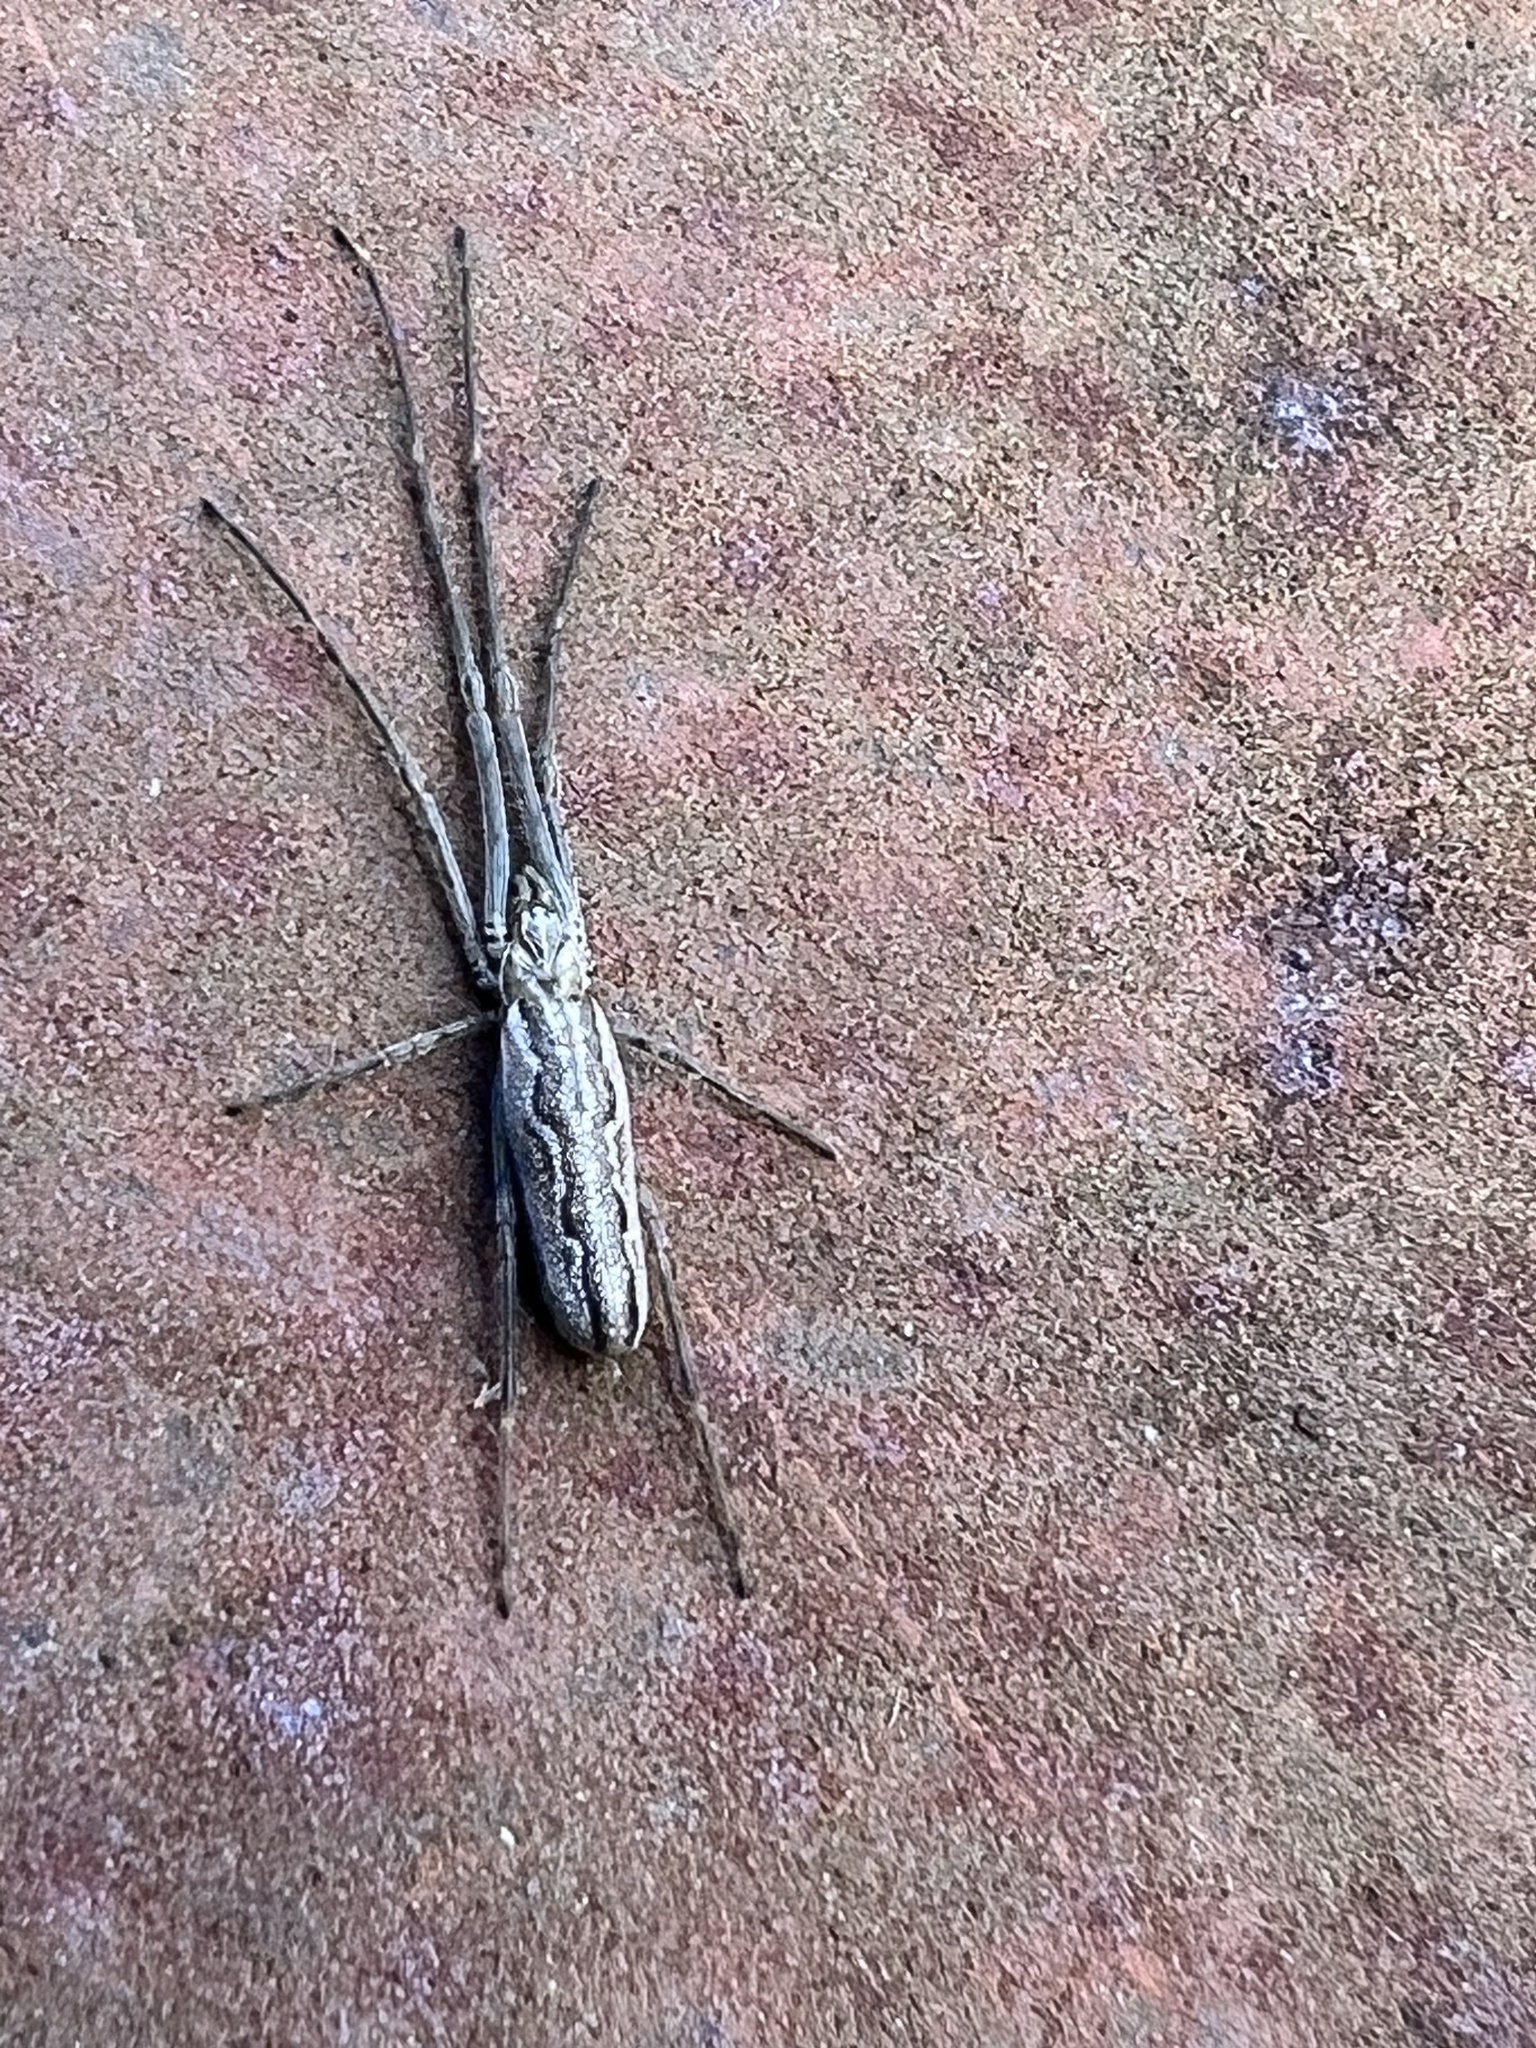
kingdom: Animalia
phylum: Arthropoda
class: Arachnida
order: Araneae
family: Tetragnathidae
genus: Tetragnatha
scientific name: Tetragnatha versicolor
